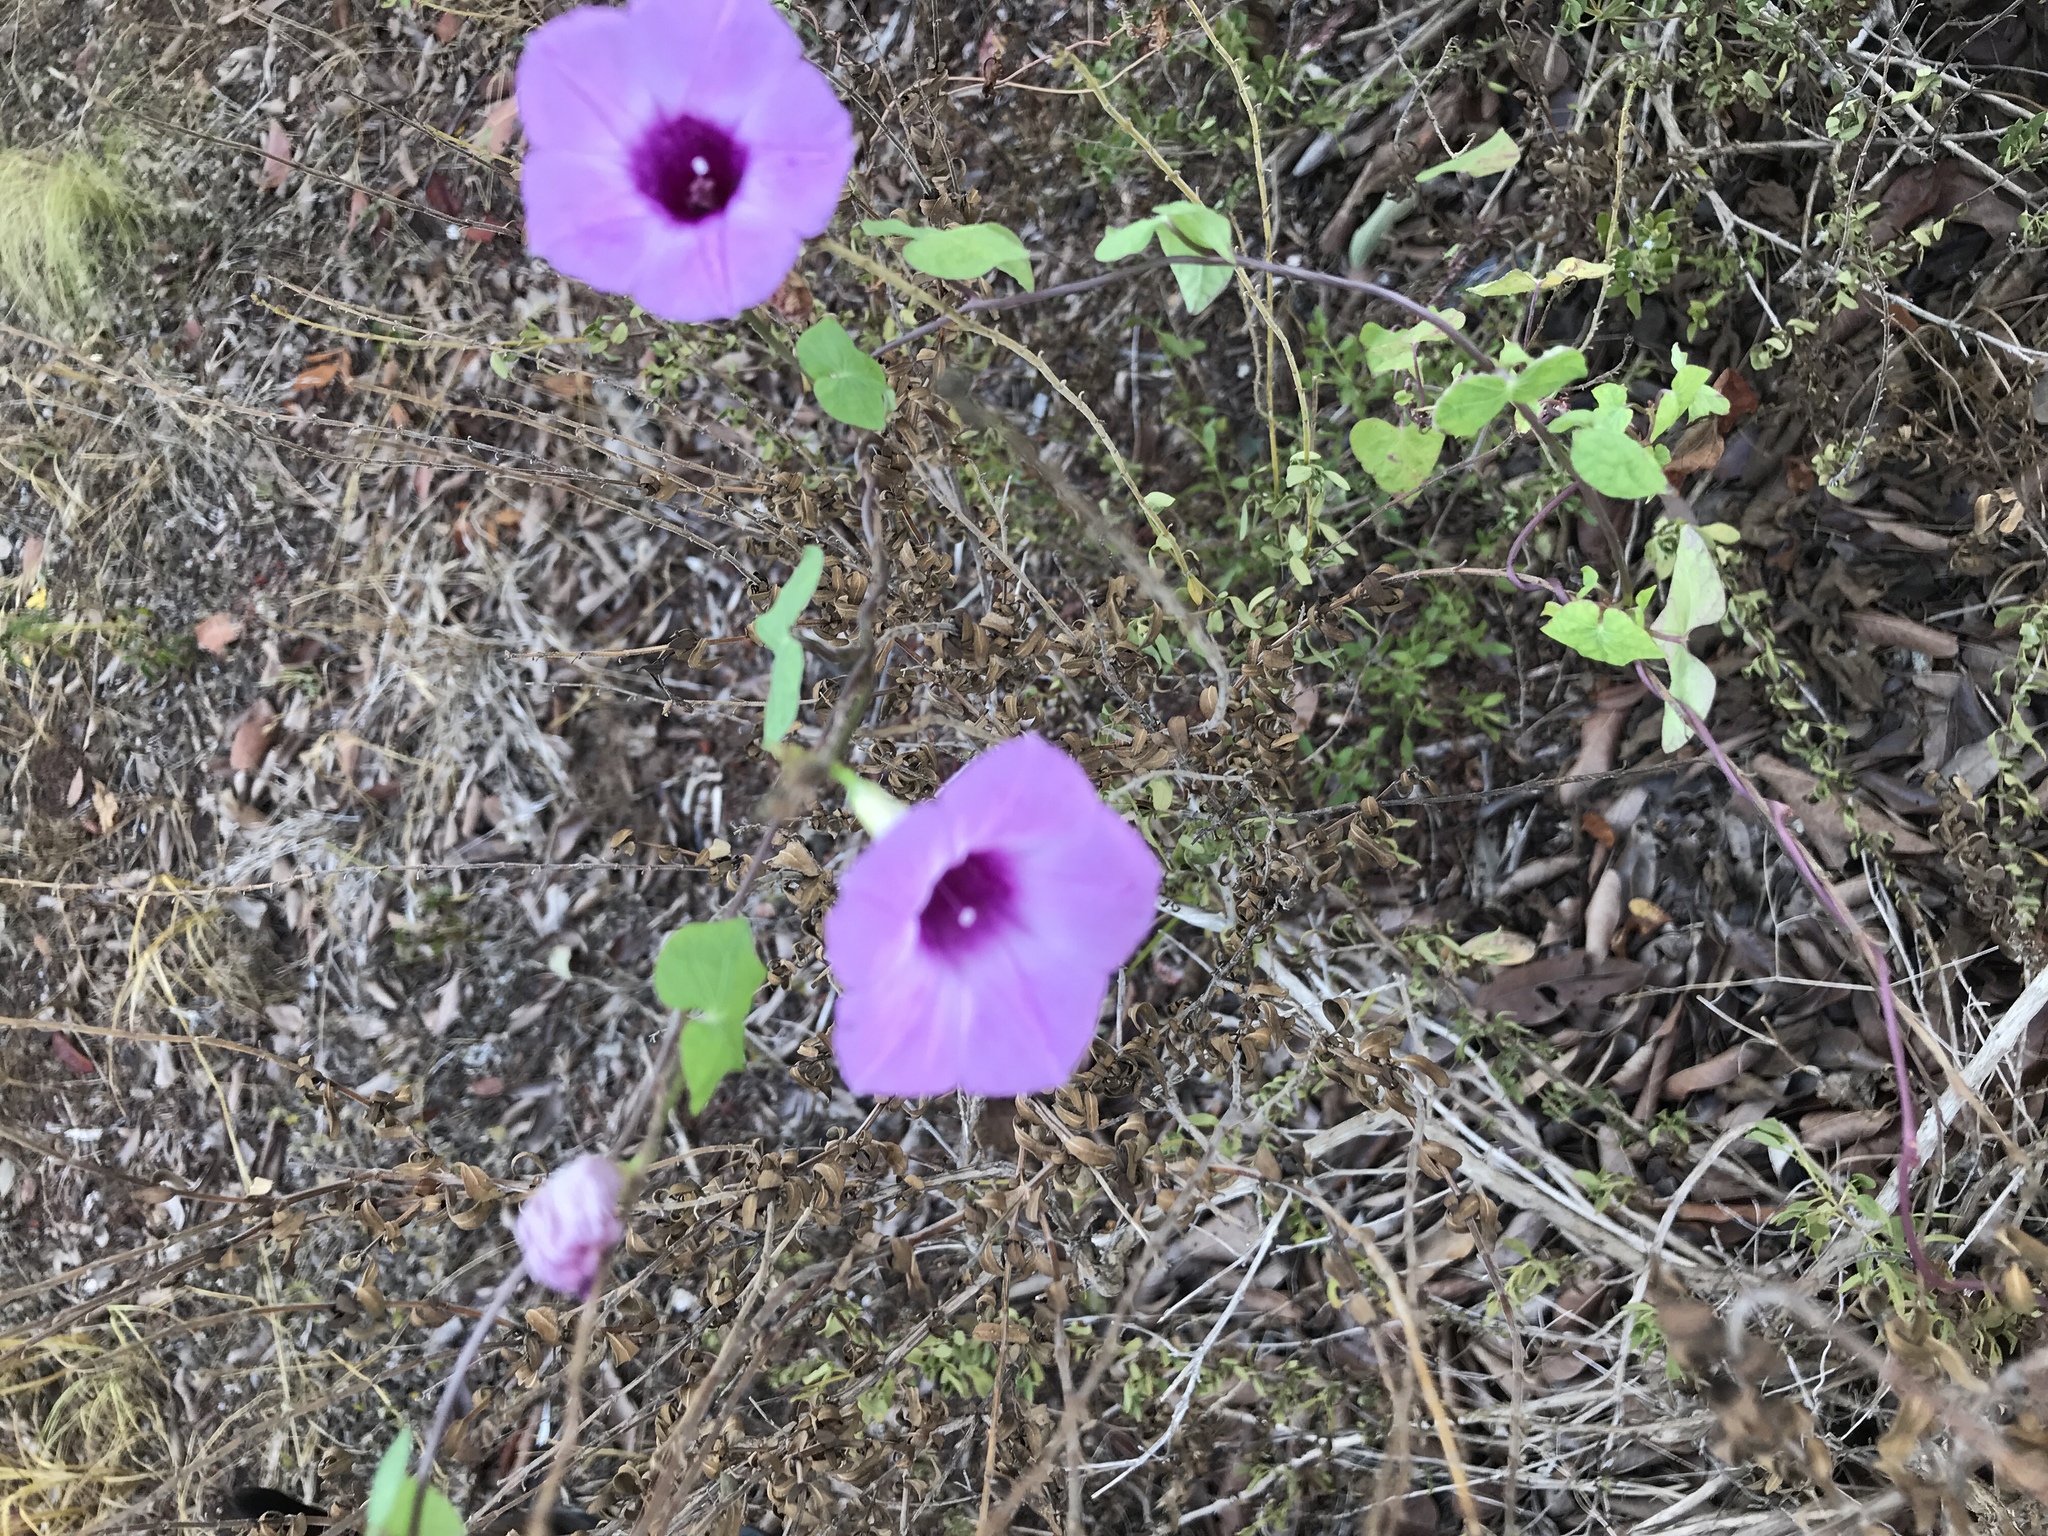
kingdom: Plantae
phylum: Tracheophyta
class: Magnoliopsida
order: Solanales
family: Convolvulaceae
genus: Ipomoea
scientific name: Ipomoea cordatotriloba
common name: Cotton morning glory
